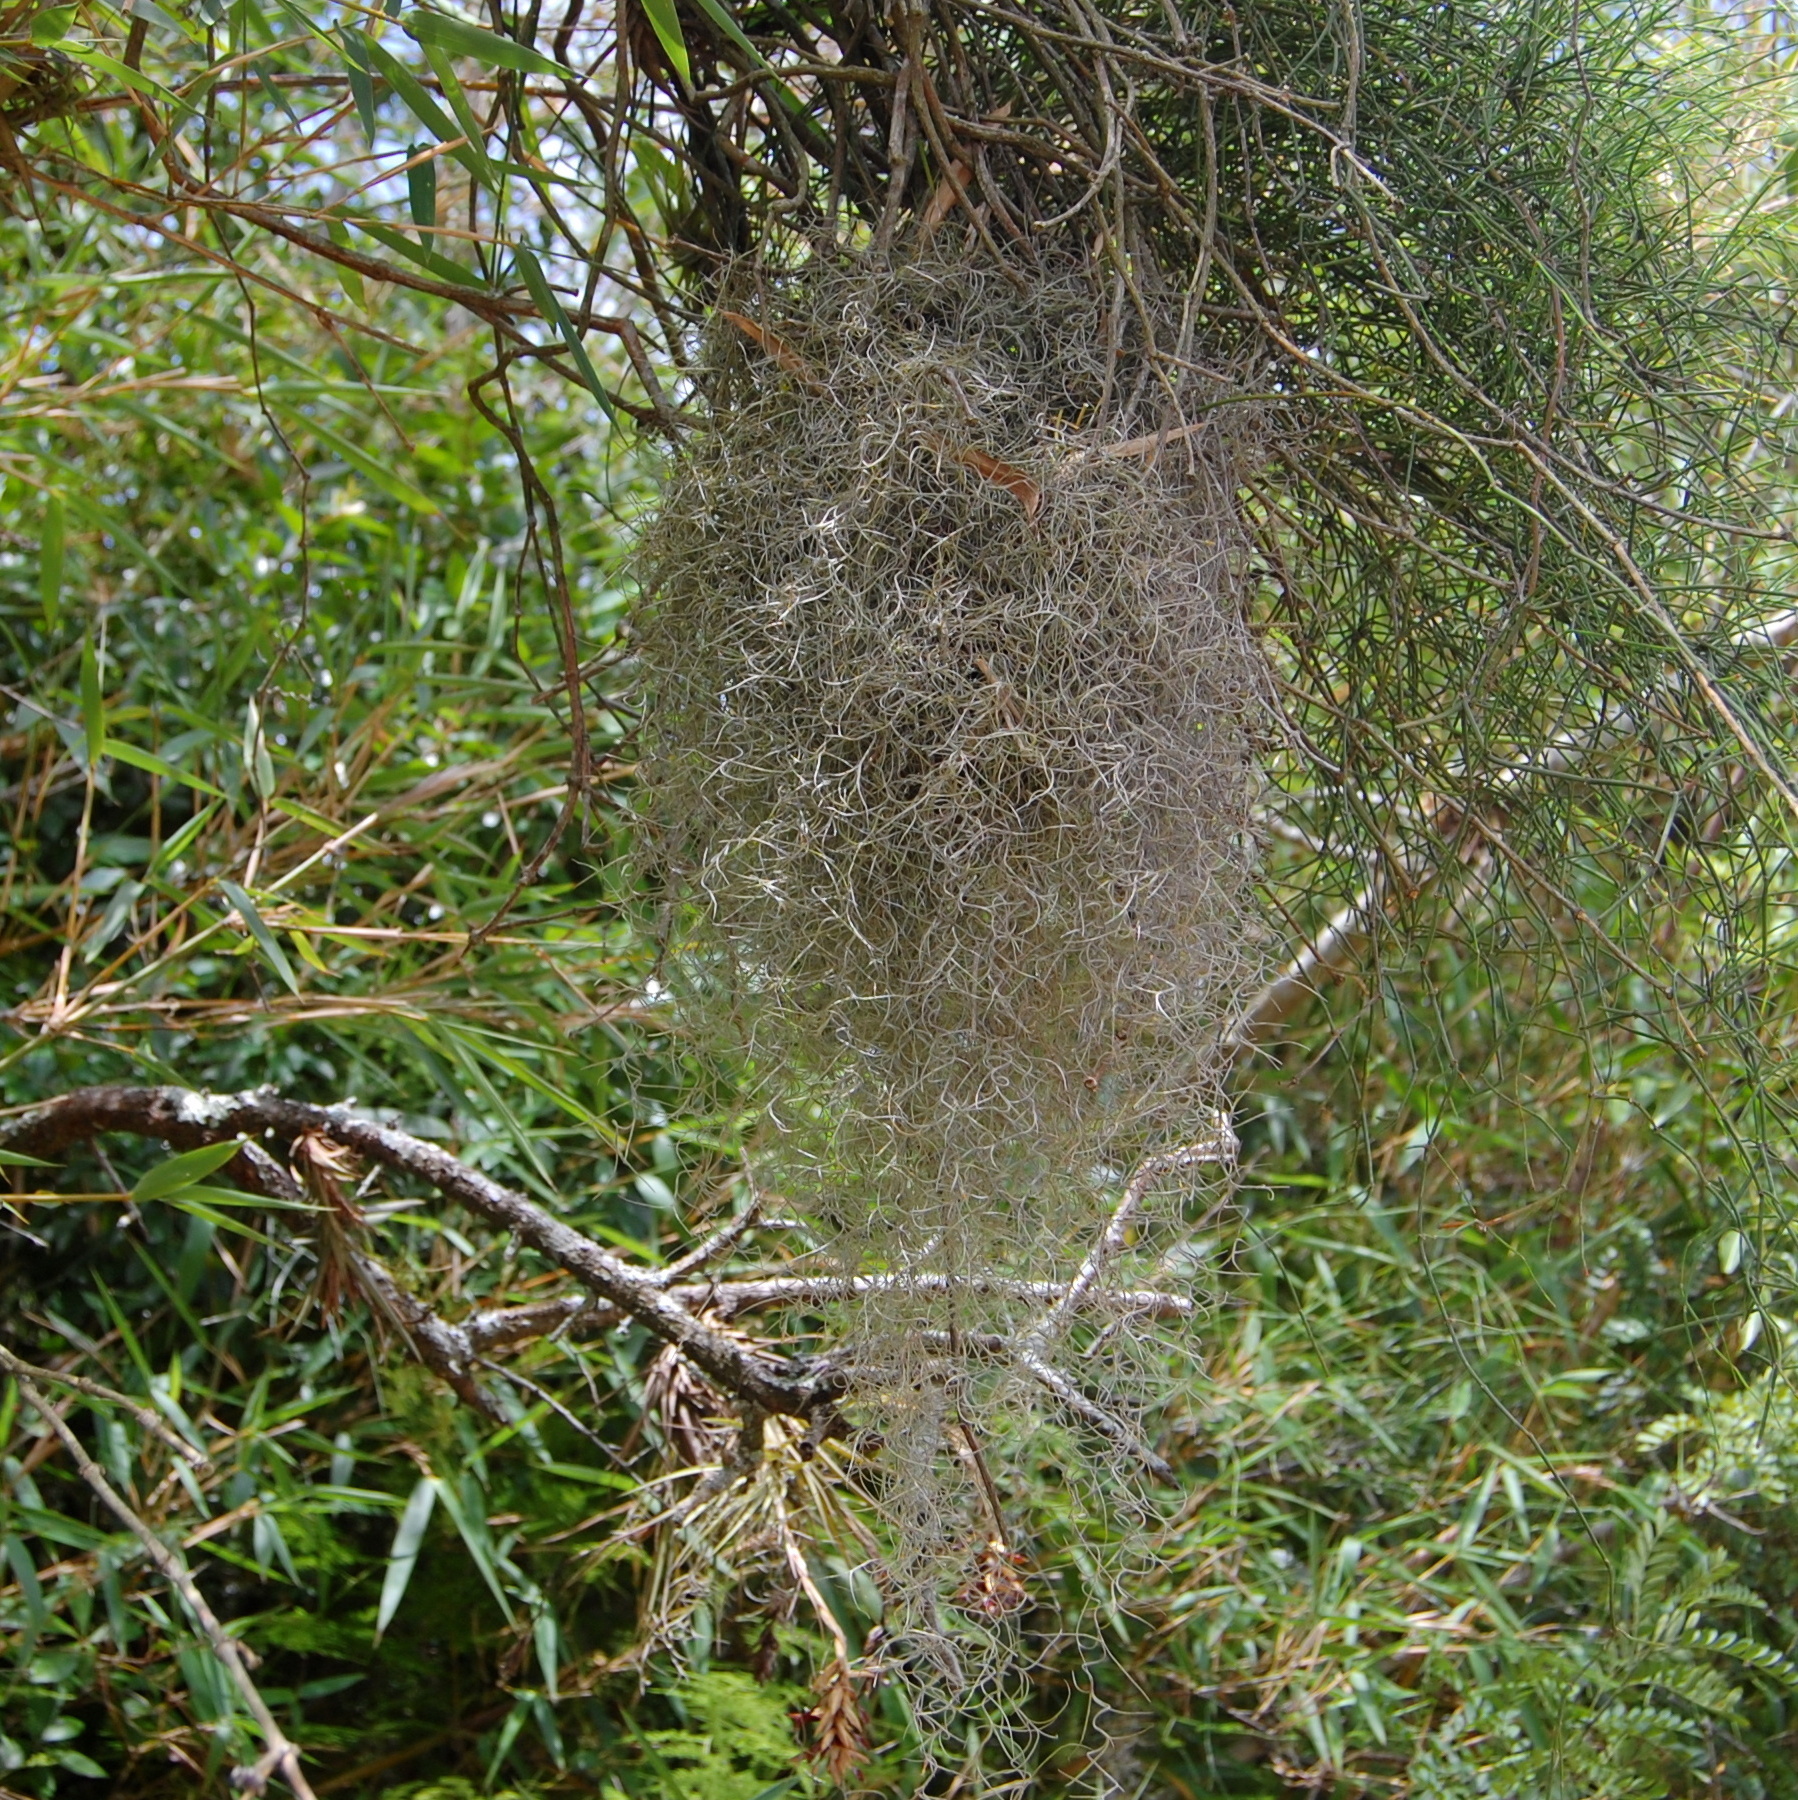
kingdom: Plantae
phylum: Tracheophyta
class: Liliopsida
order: Poales
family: Bromeliaceae
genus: Tillandsia
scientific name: Tillandsia usneoides
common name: Spanish moss
